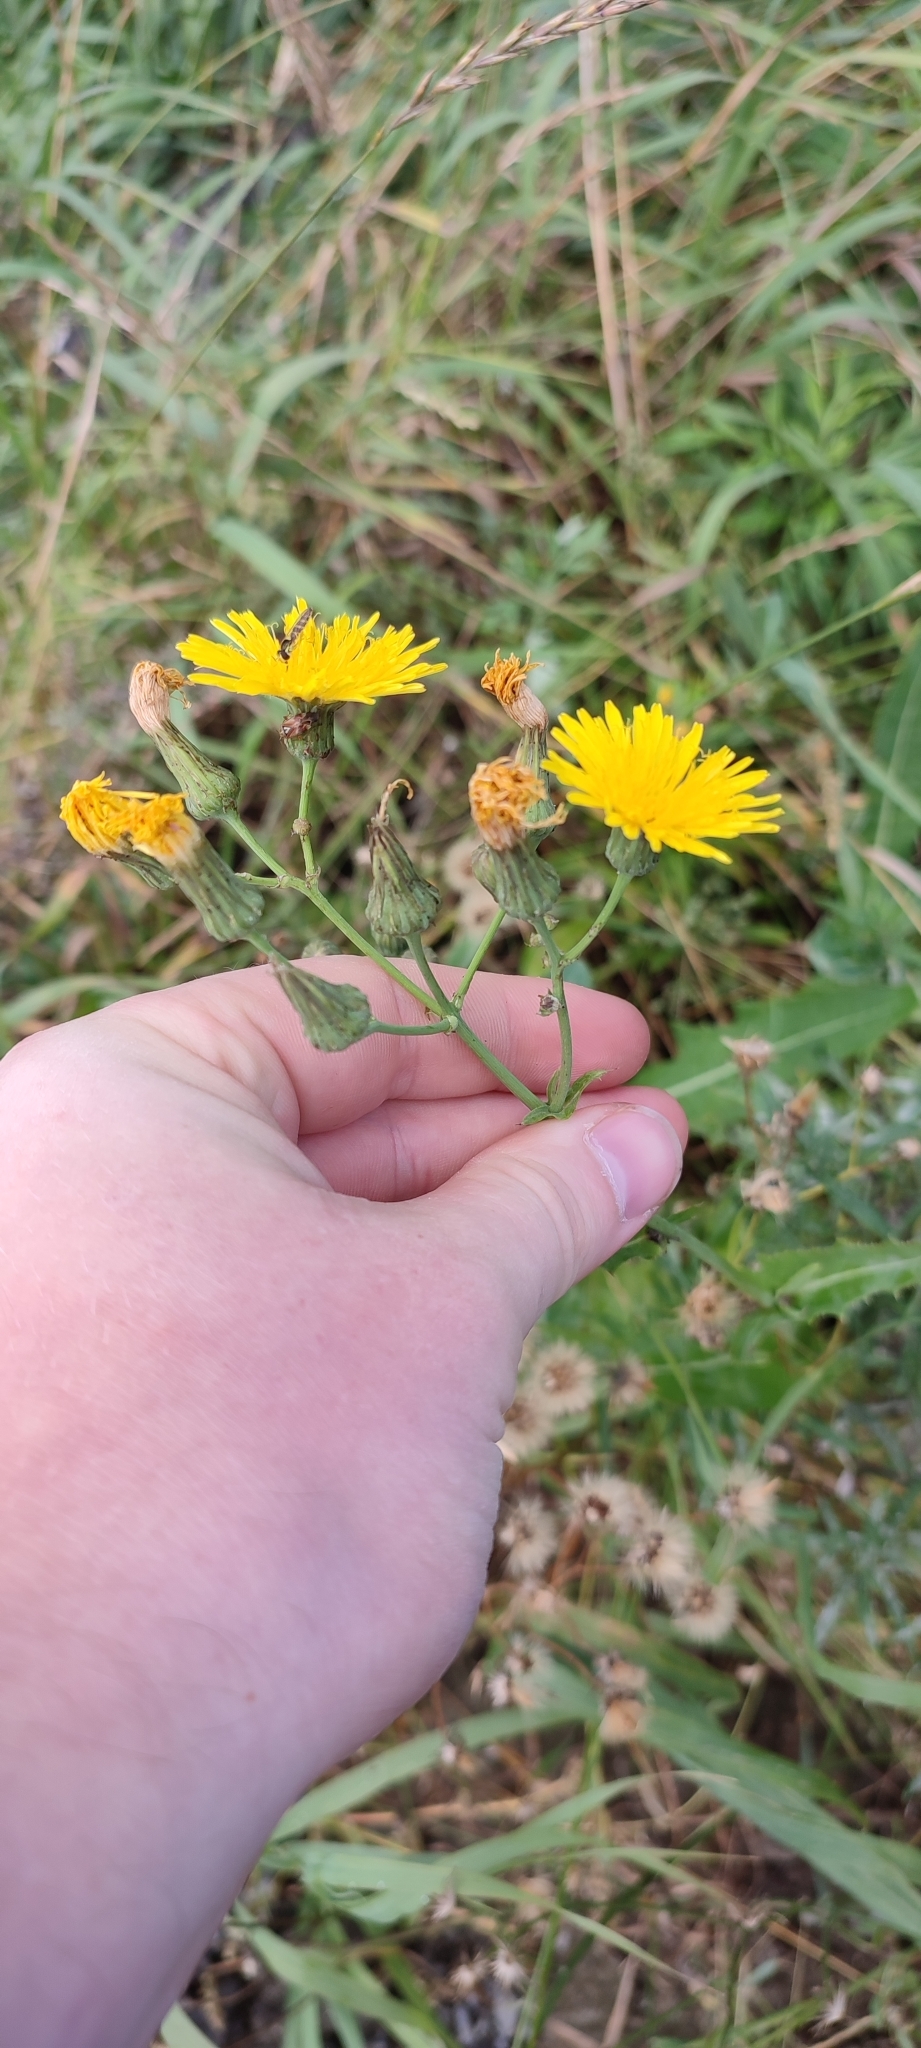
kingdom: Plantae
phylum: Tracheophyta
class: Magnoliopsida
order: Asterales
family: Asteraceae
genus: Sonchus
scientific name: Sonchus arvensis
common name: Perennial sow-thistle
